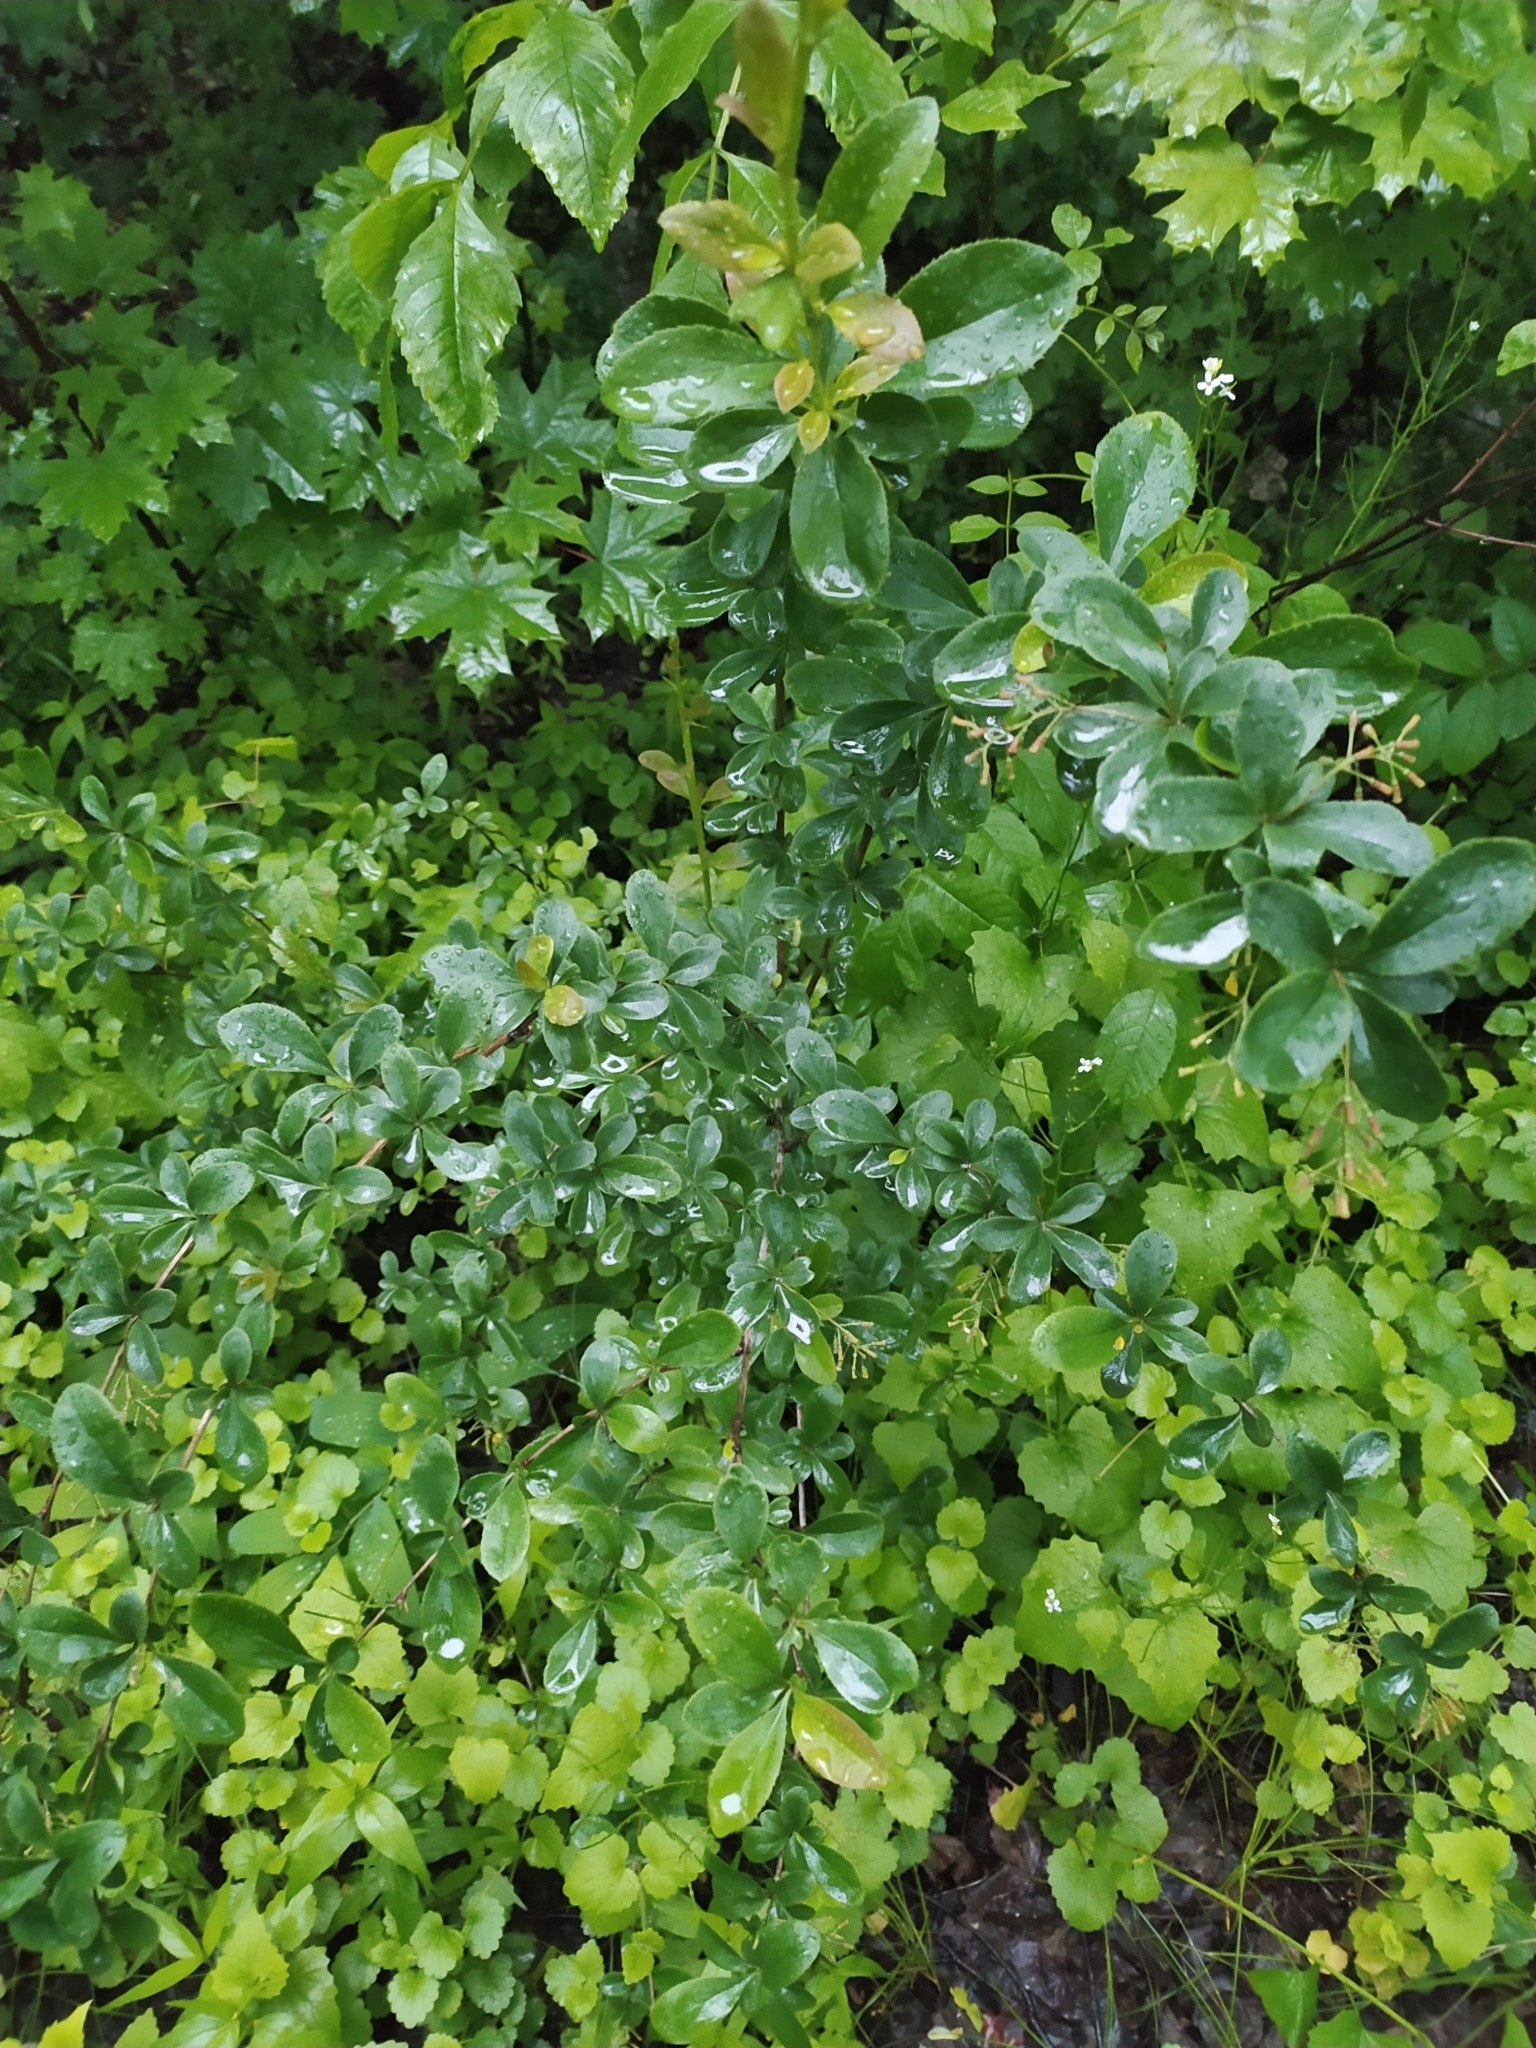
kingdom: Plantae
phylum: Tracheophyta
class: Magnoliopsida
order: Ranunculales
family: Berberidaceae
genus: Berberis
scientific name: Berberis vulgaris
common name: Barberry
